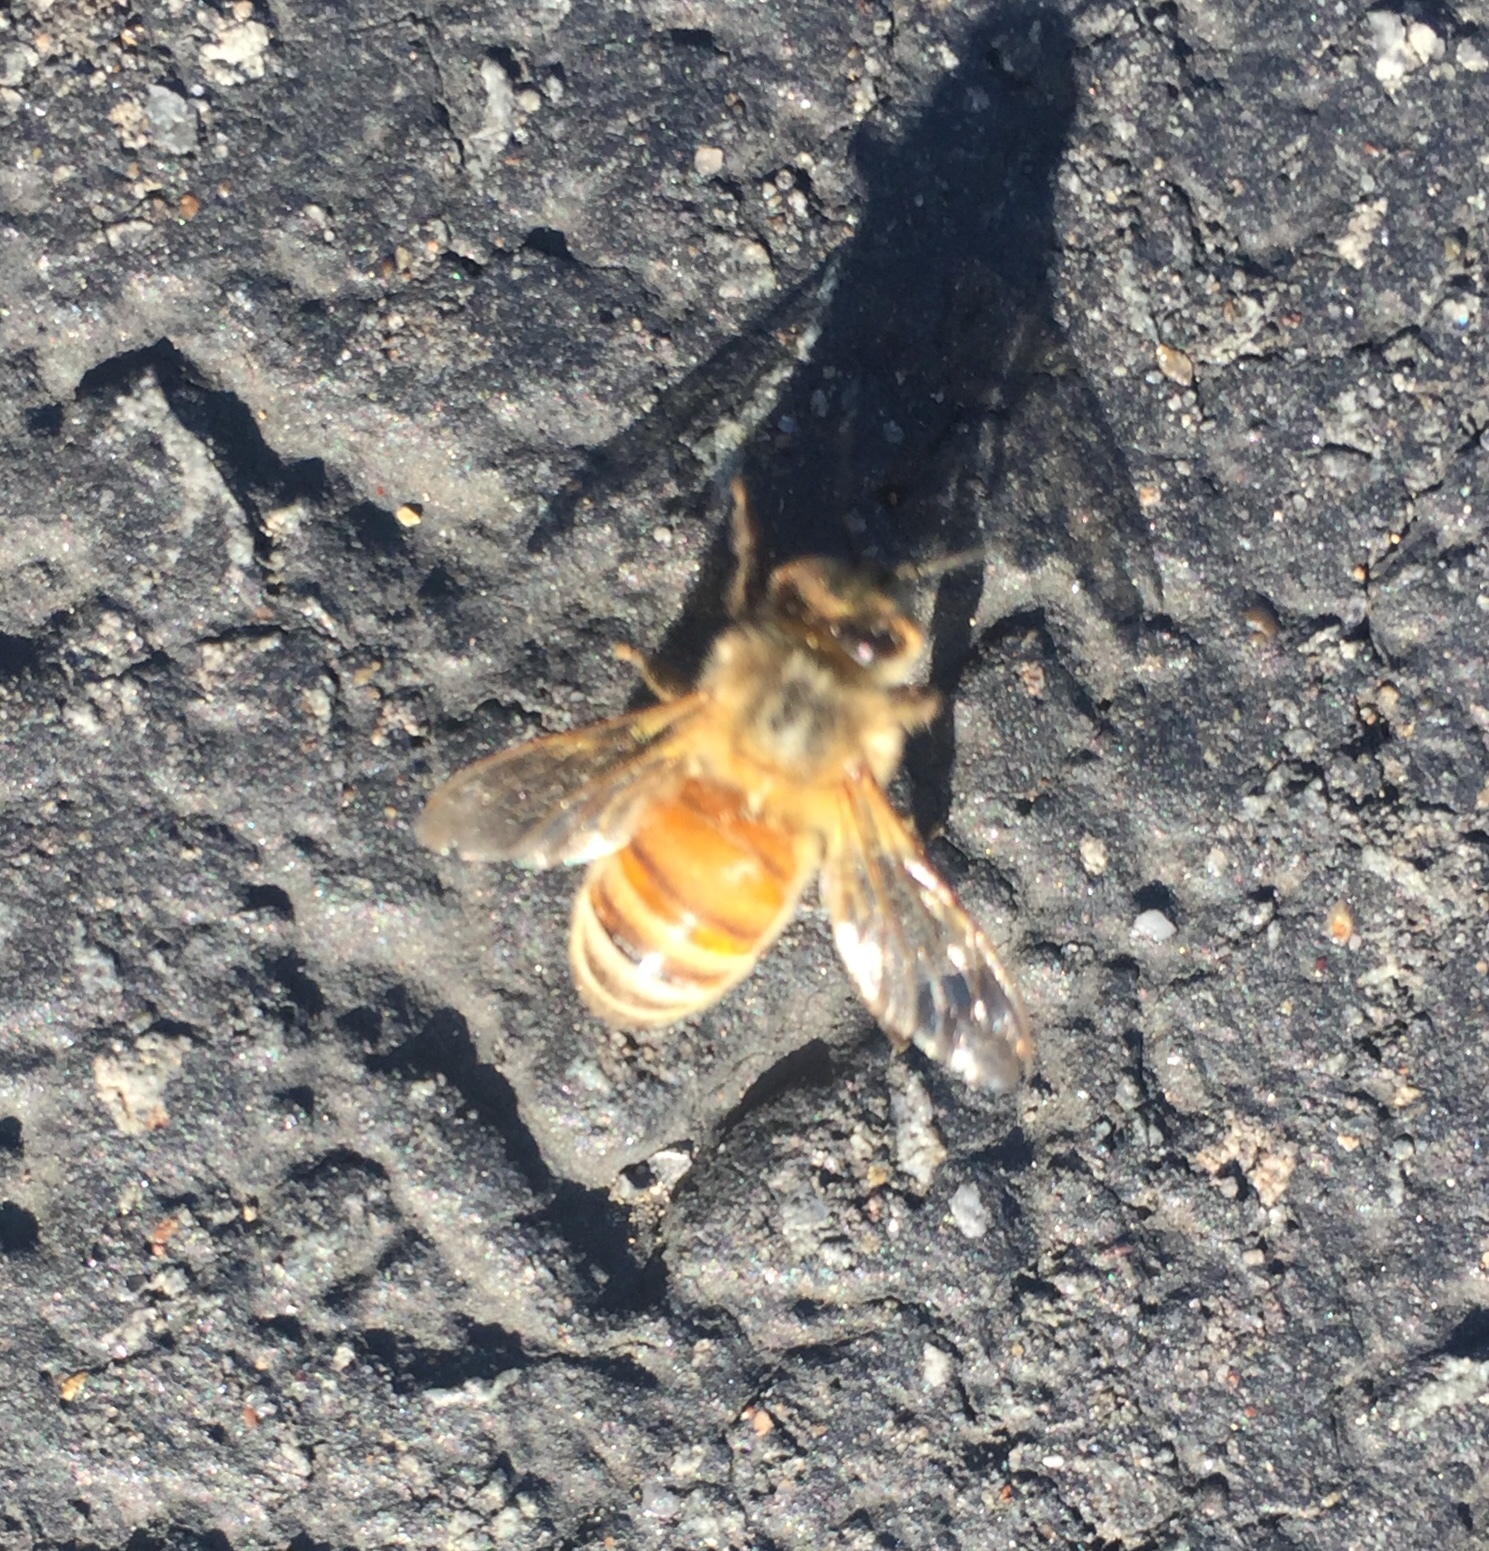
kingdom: Animalia
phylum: Arthropoda
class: Insecta
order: Hymenoptera
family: Apidae
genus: Apis
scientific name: Apis mellifera
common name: Honey bee
